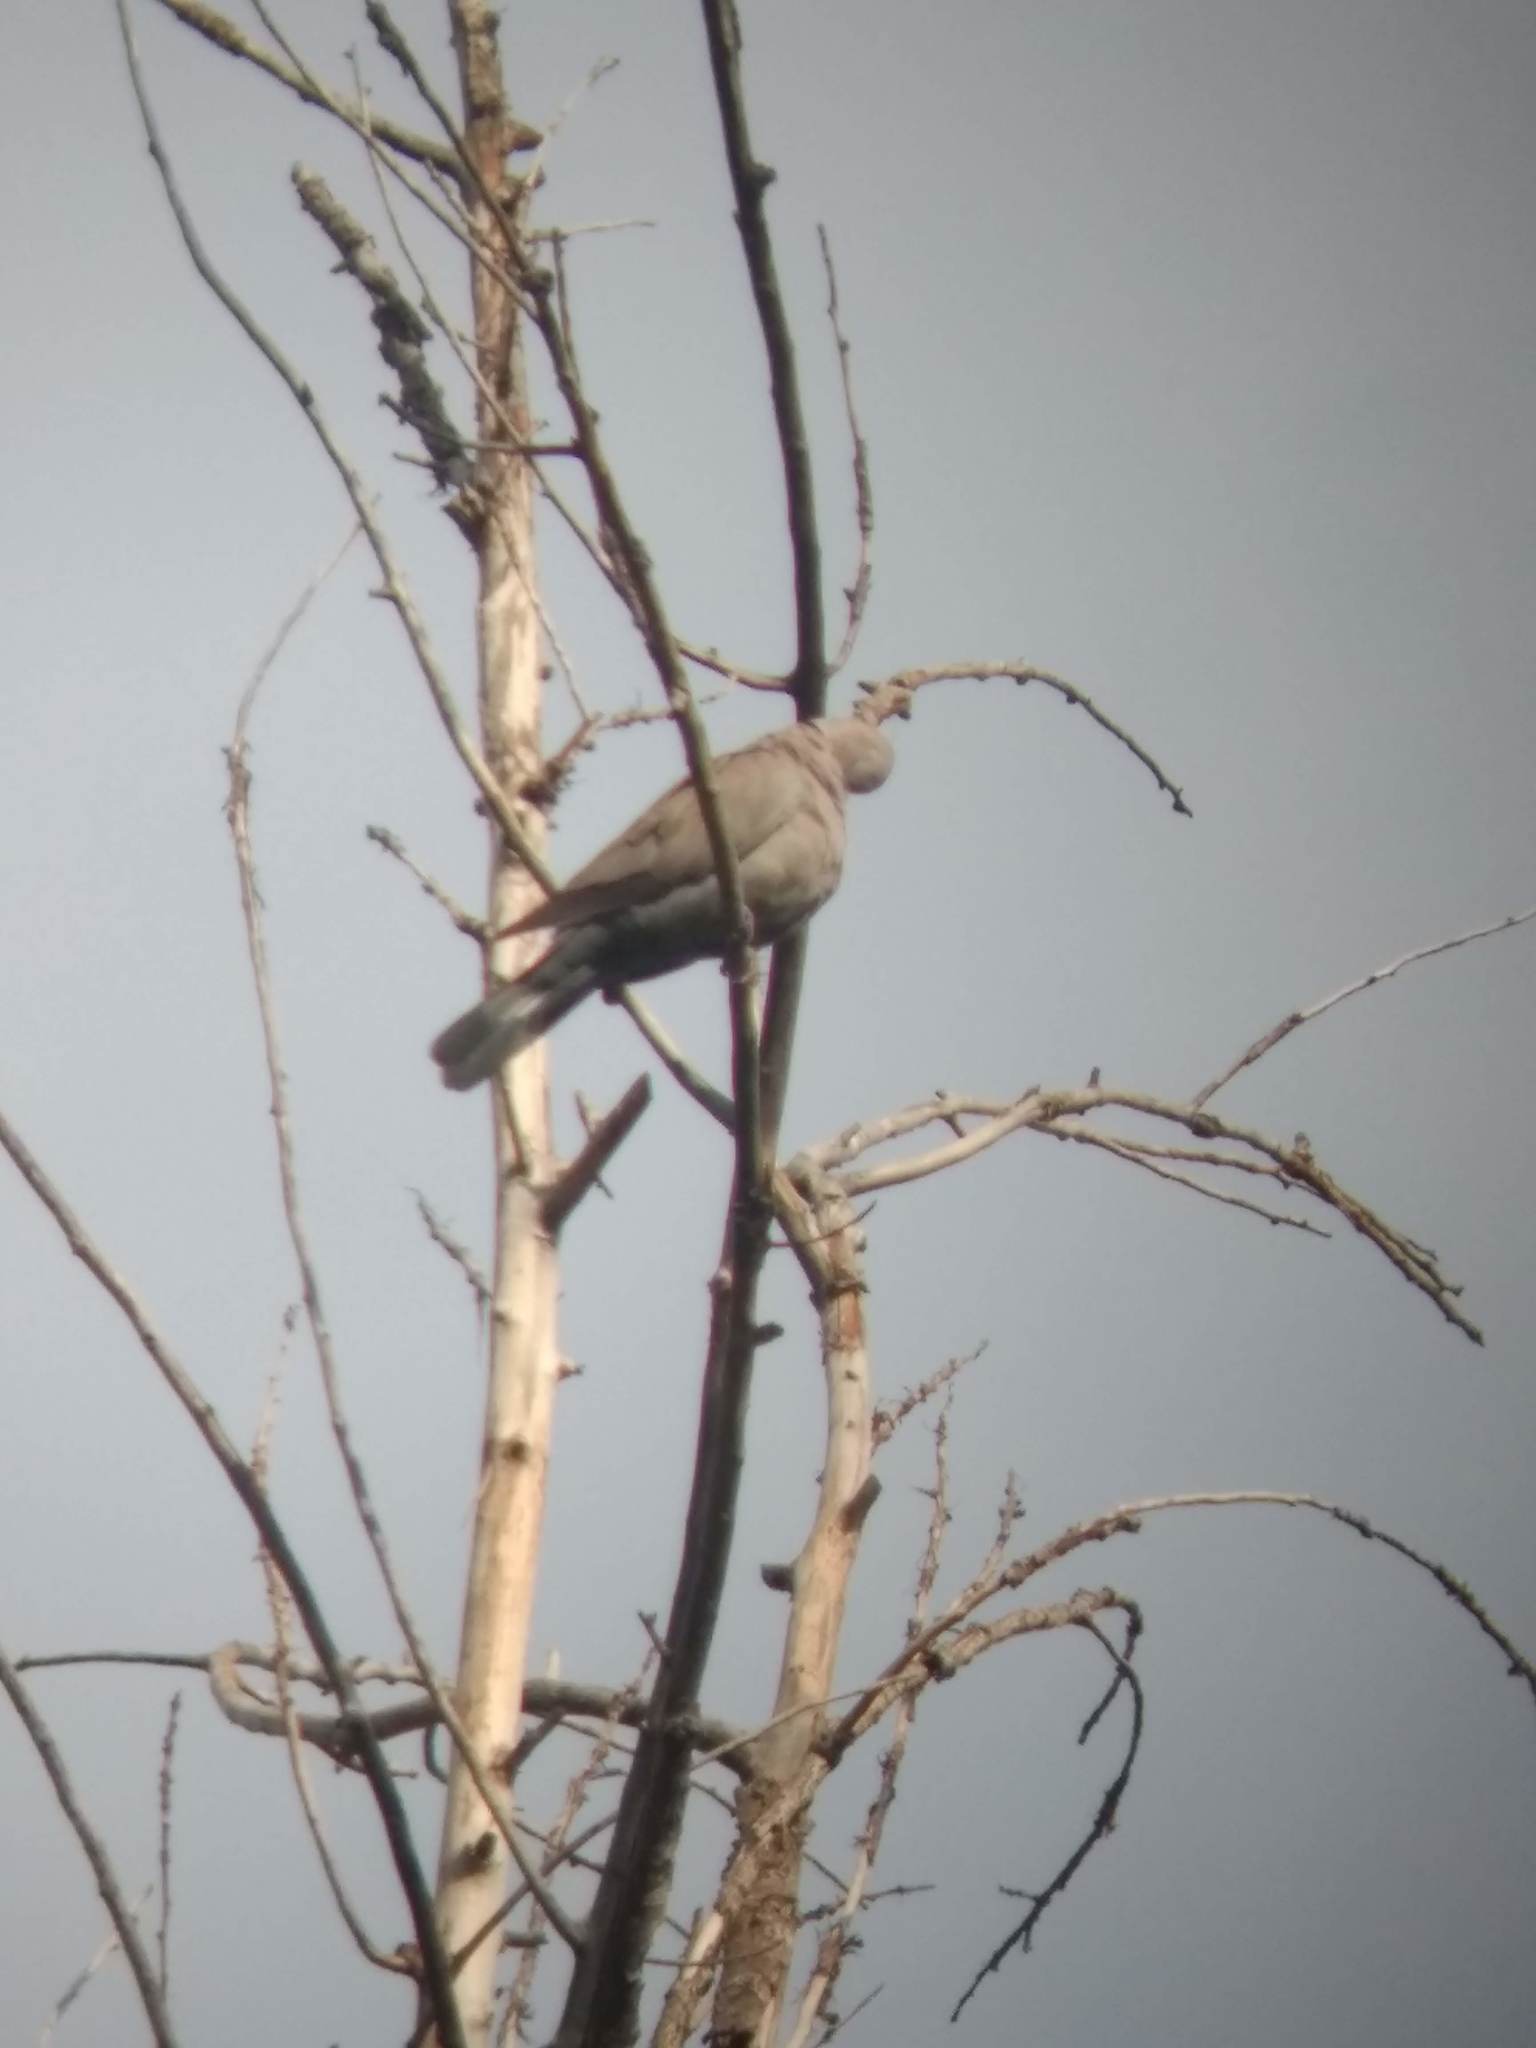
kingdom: Animalia
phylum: Chordata
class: Aves
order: Columbiformes
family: Columbidae
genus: Streptopelia
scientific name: Streptopelia decaocto
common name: Eurasian collared dove
